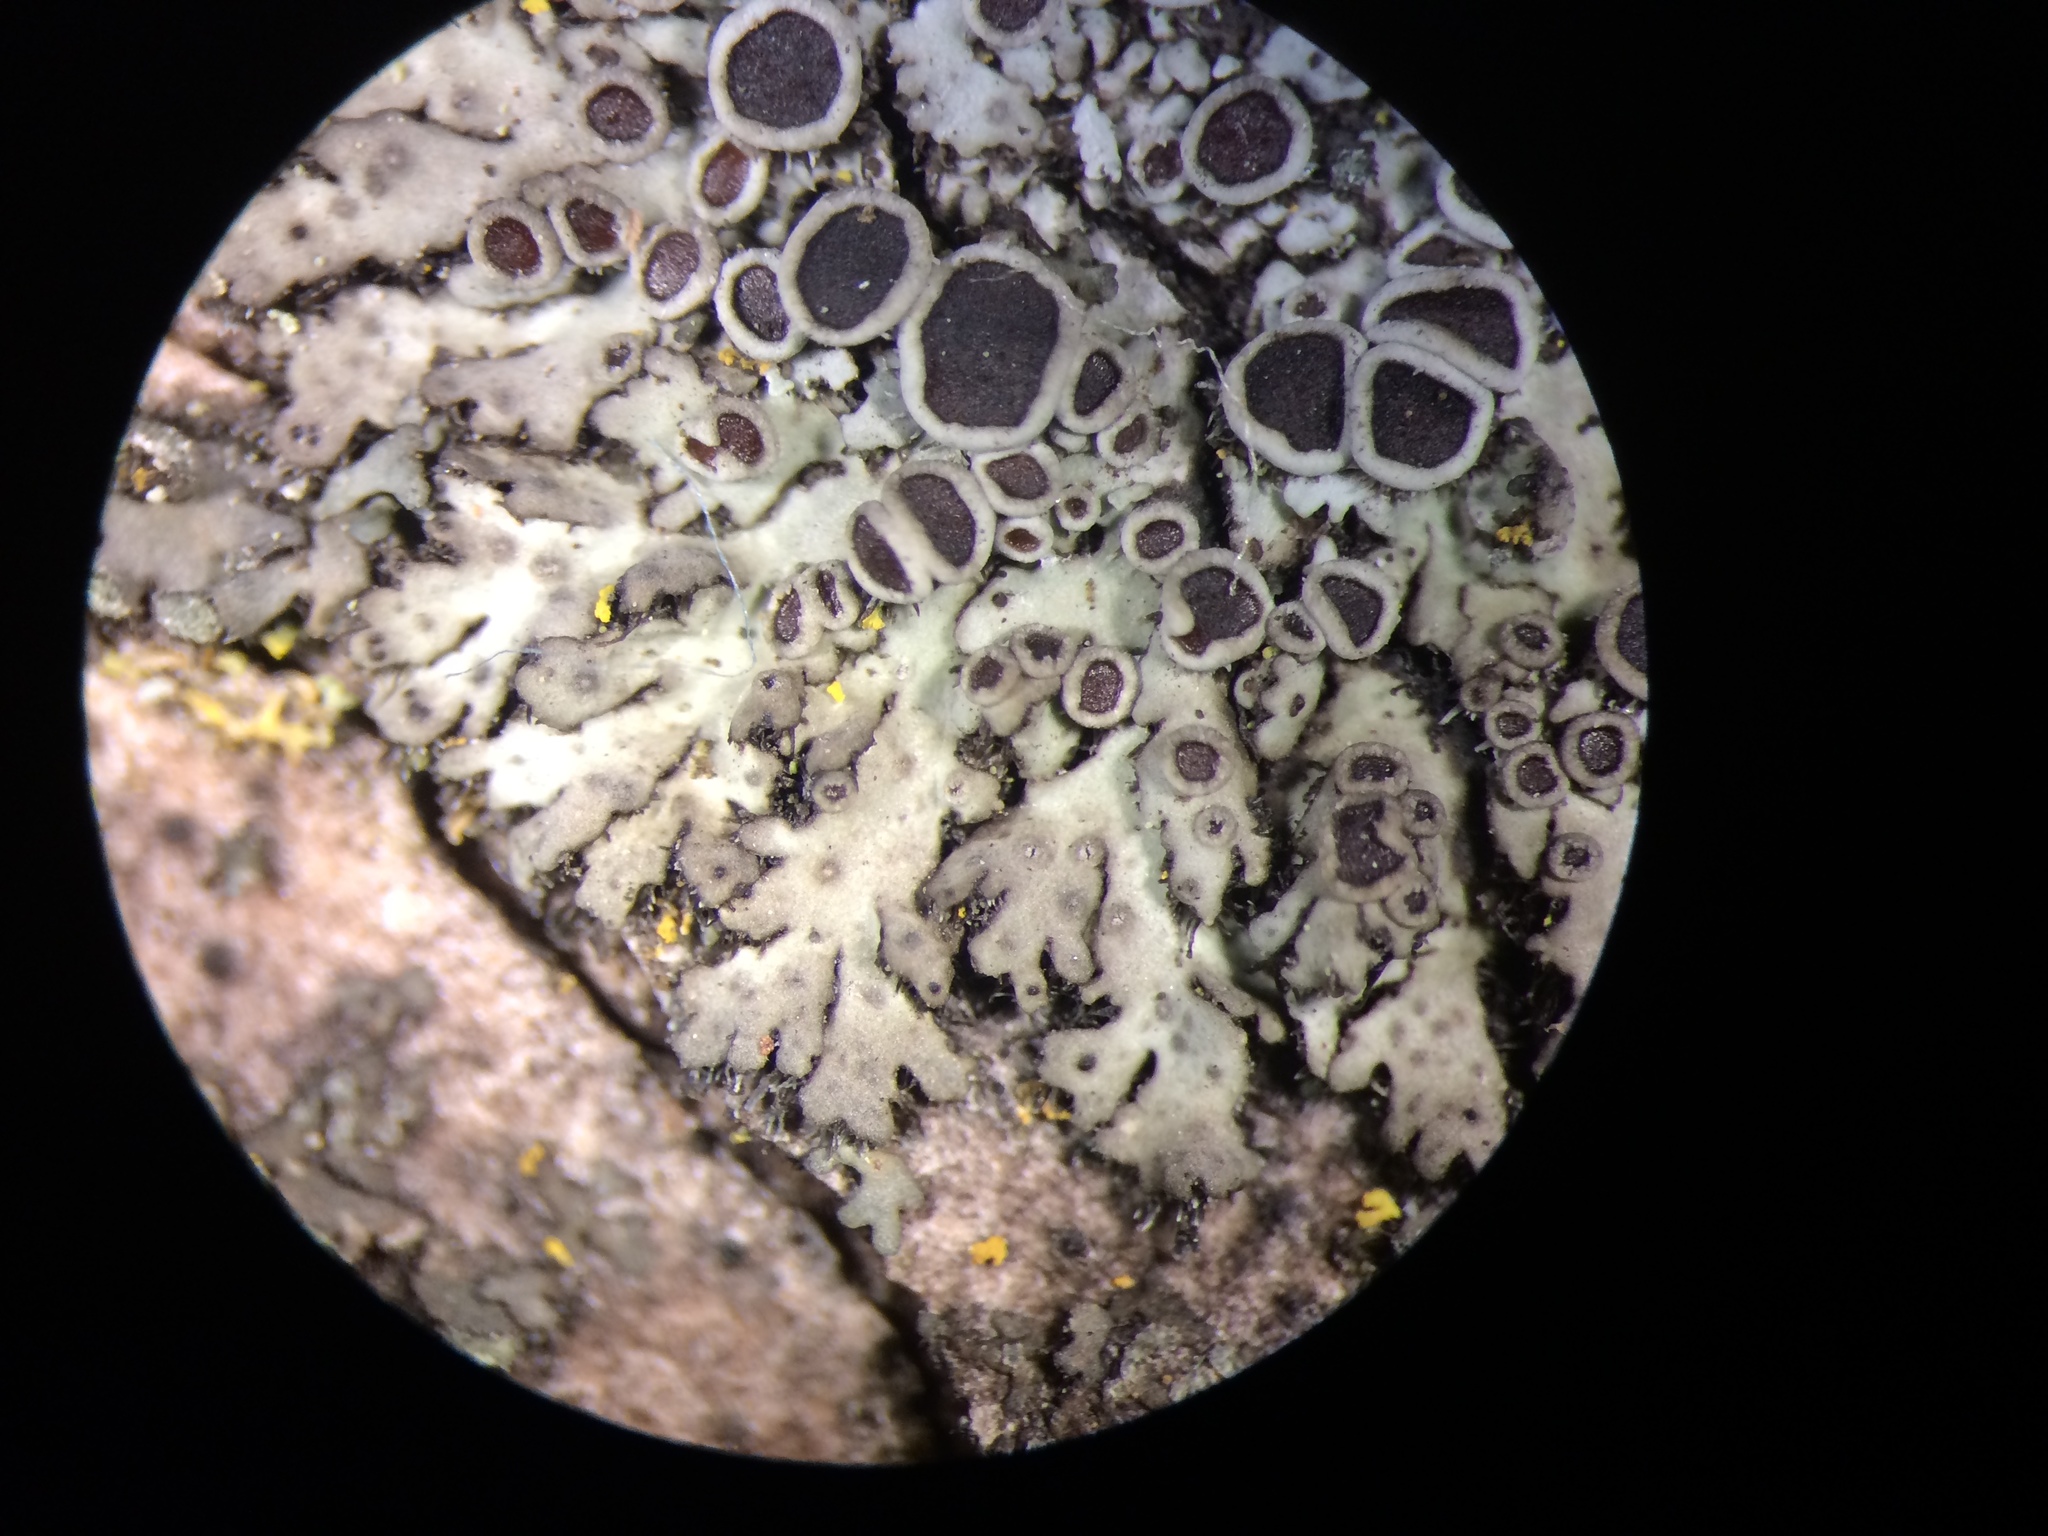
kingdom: Fungi
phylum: Ascomycota
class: Lecanoromycetes
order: Caliciales
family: Physciaceae
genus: Phaeophyscia
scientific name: Phaeophyscia ciliata
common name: Smooth shadow lichen
